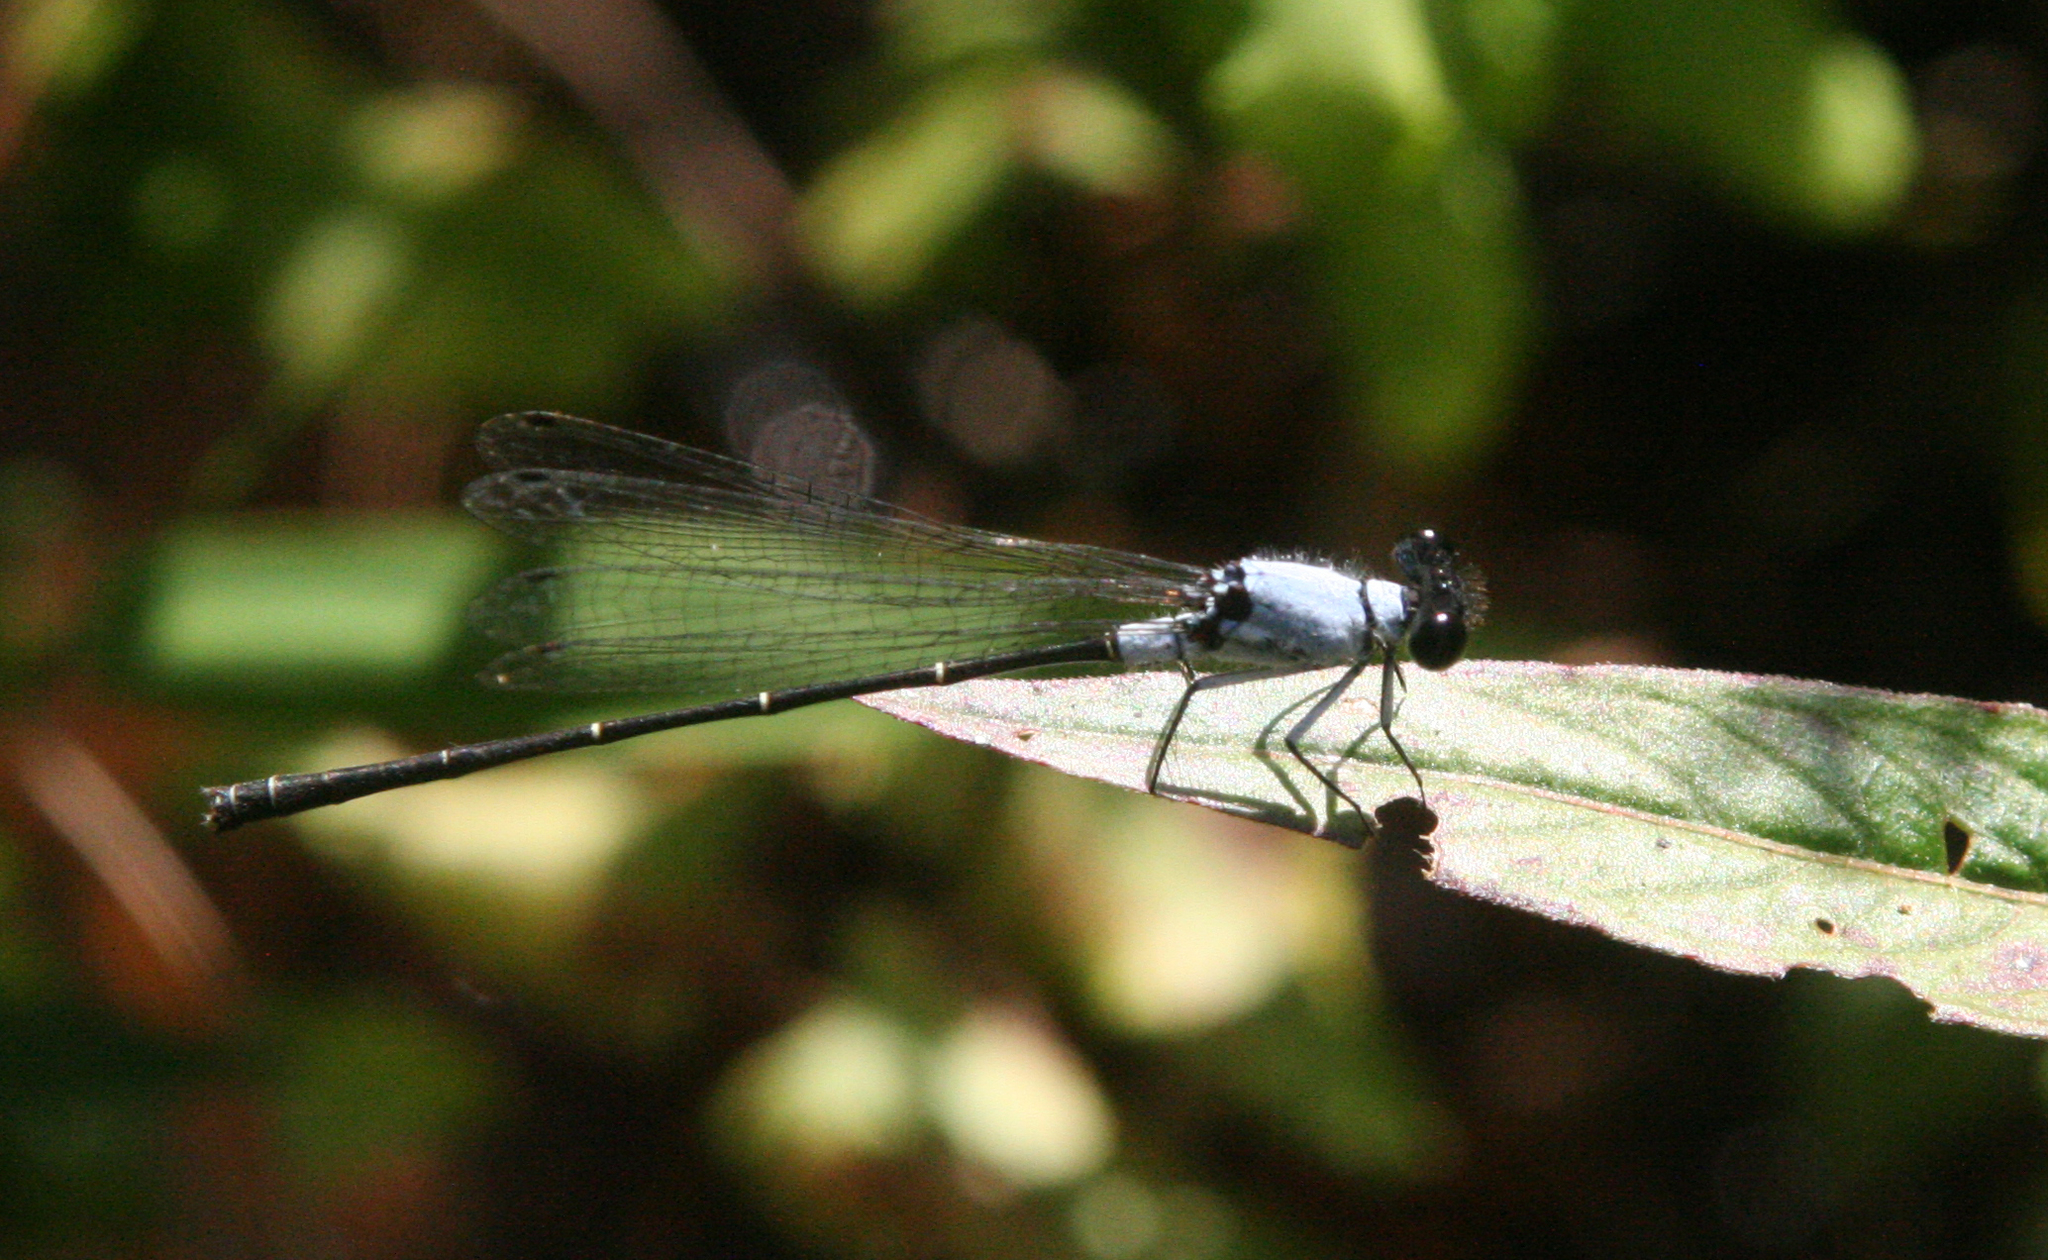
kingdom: Animalia
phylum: Arthropoda
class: Insecta
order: Odonata
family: Platycnemididae
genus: Onychargia
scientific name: Onychargia priydak
